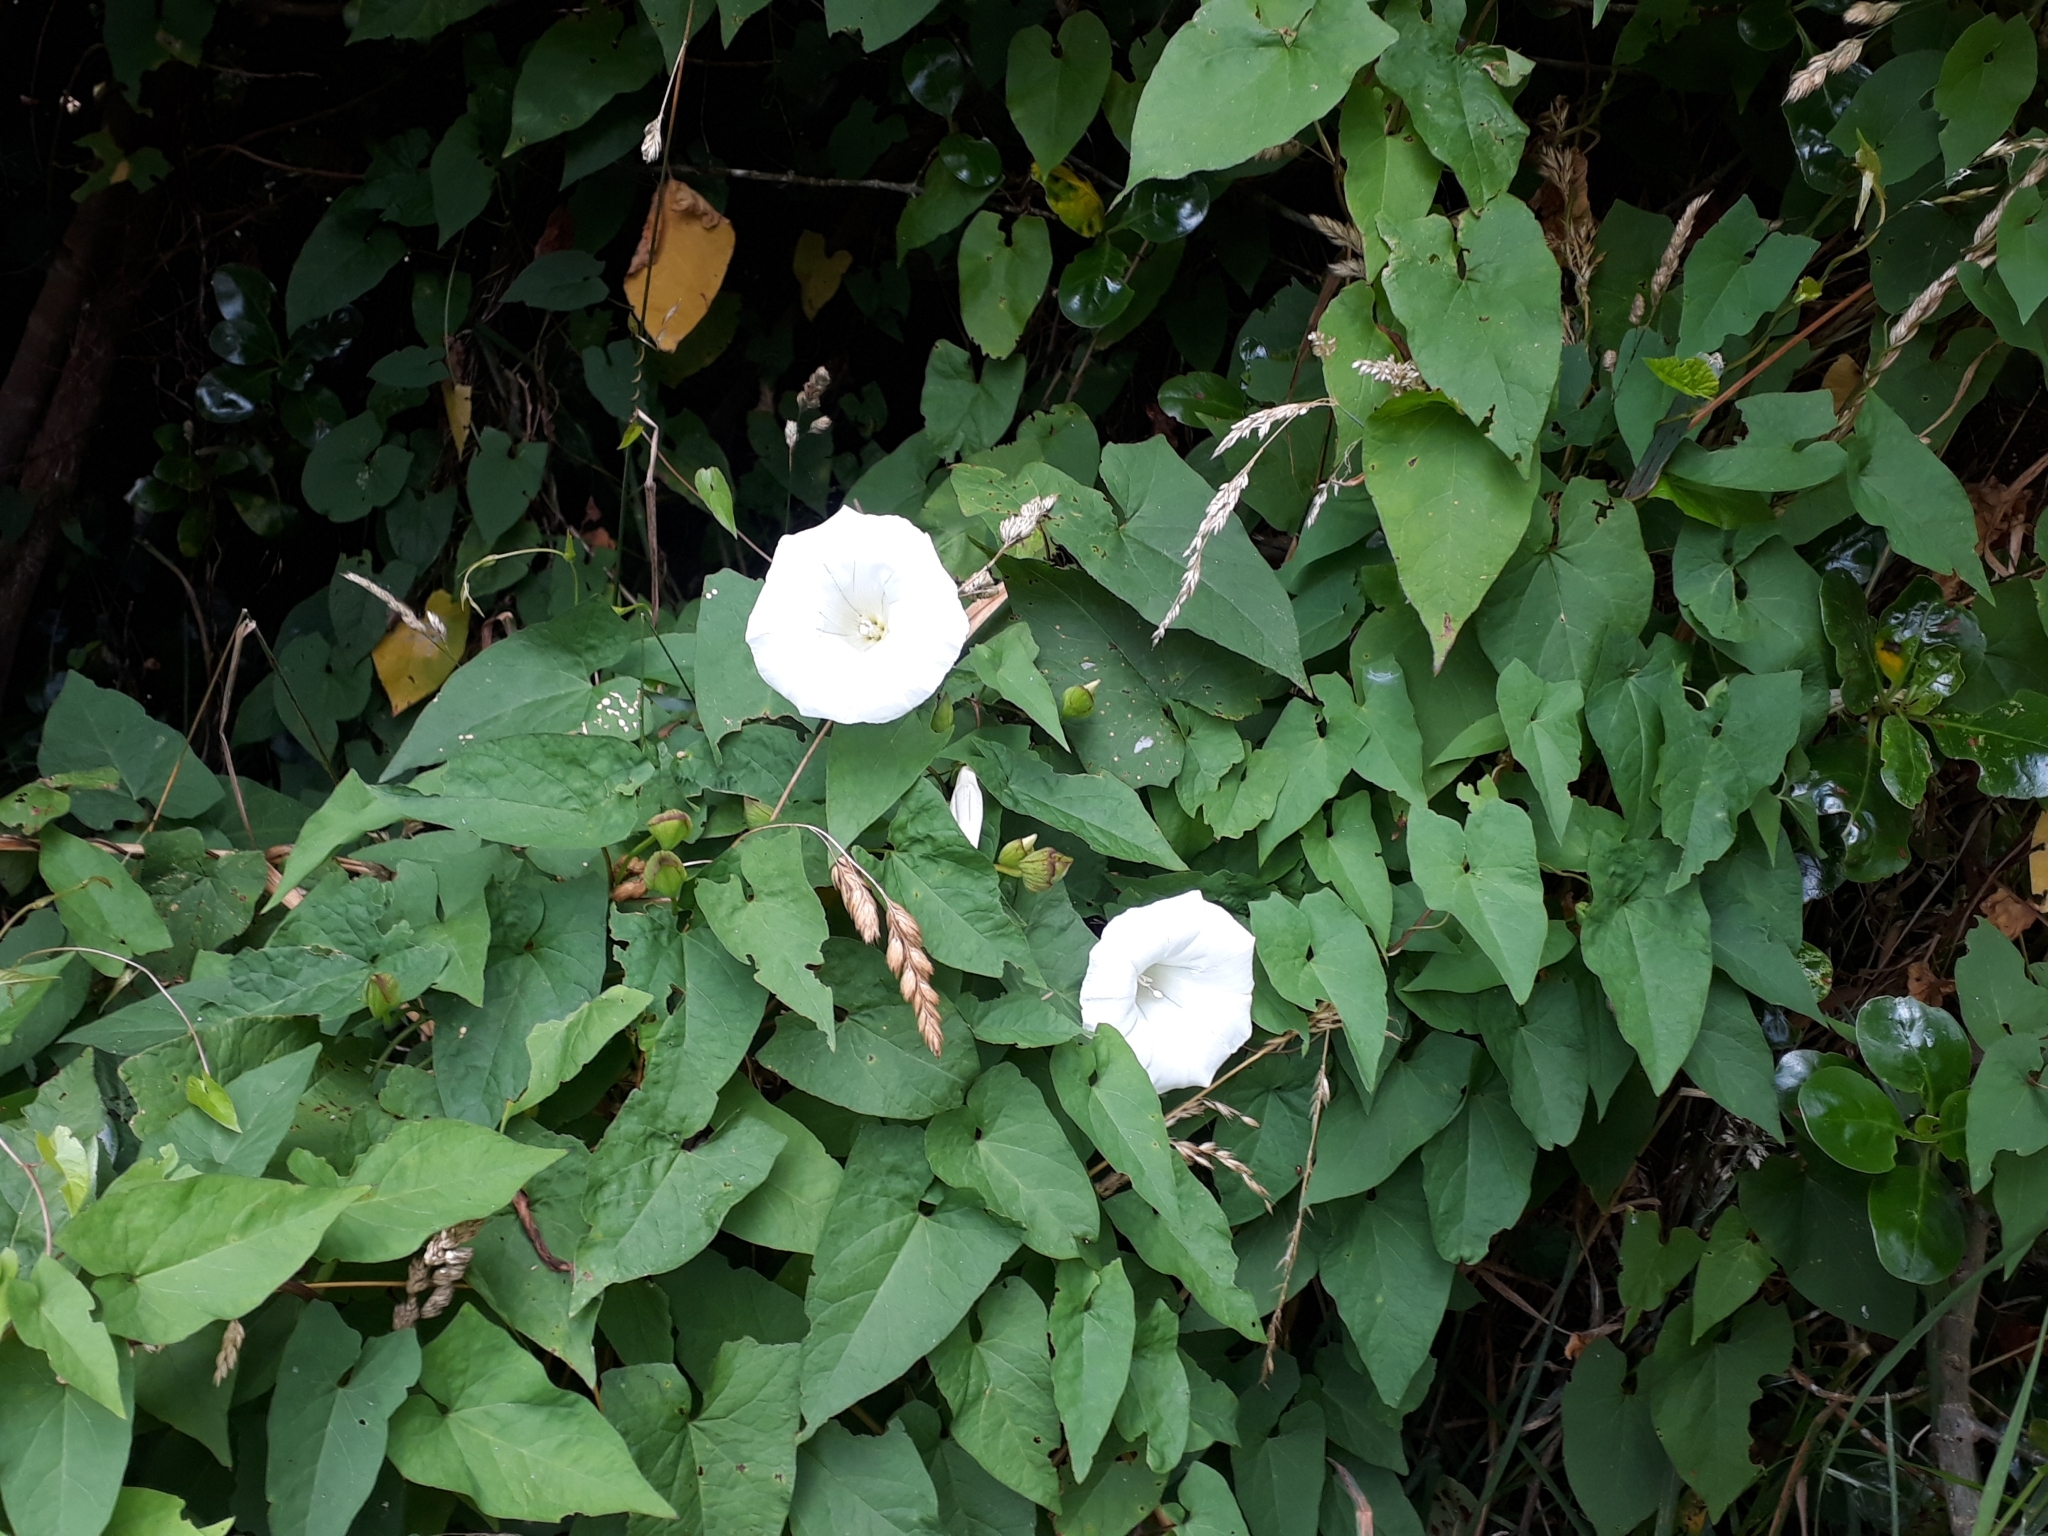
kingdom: Plantae
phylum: Tracheophyta
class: Magnoliopsida
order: Solanales
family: Convolvulaceae
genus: Calystegia
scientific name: Calystegia silvatica
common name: Large bindweed
